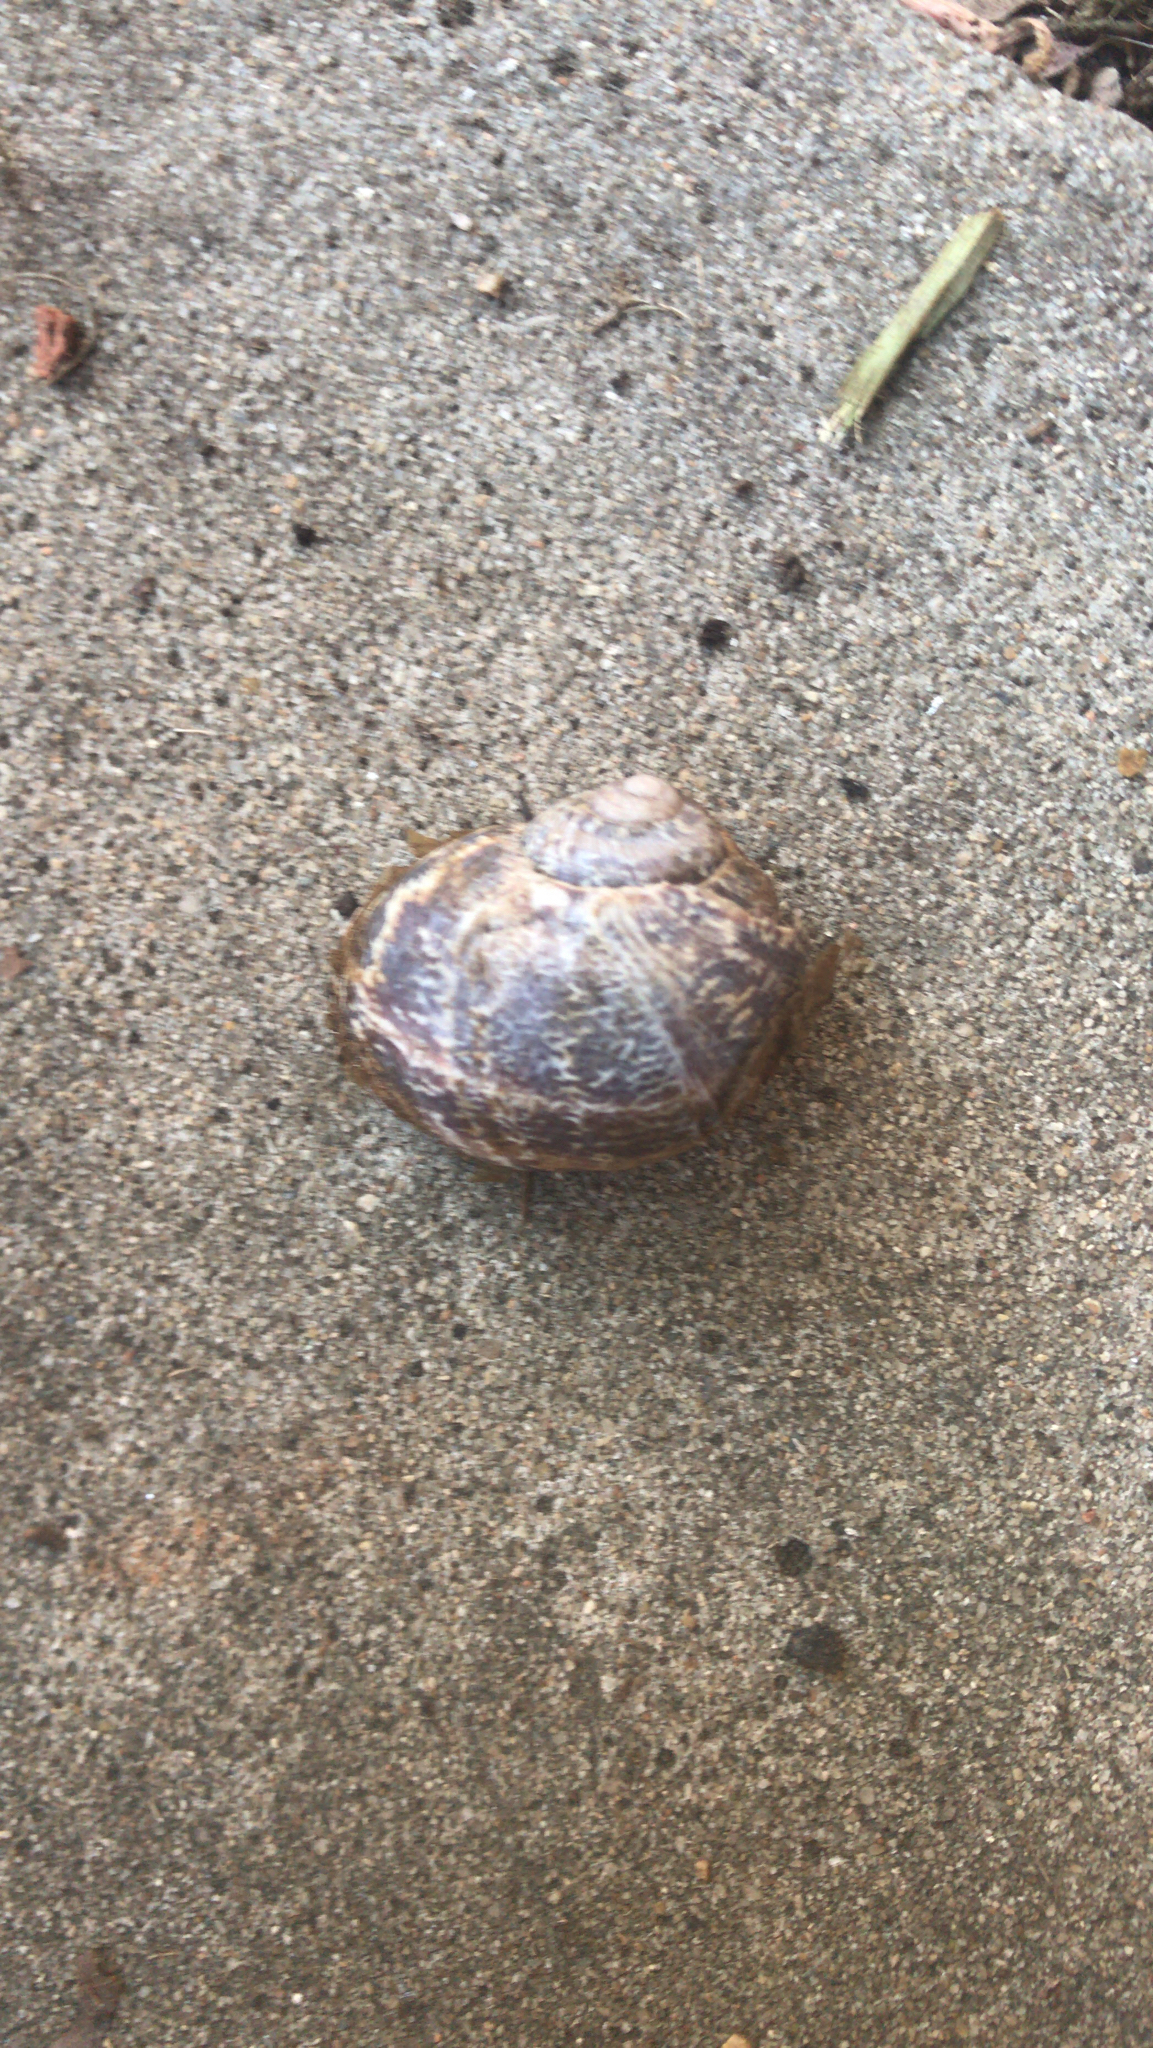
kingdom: Animalia
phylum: Mollusca
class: Gastropoda
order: Stylommatophora
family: Helicidae
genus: Cornu
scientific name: Cornu aspersum
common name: Brown garden snail
